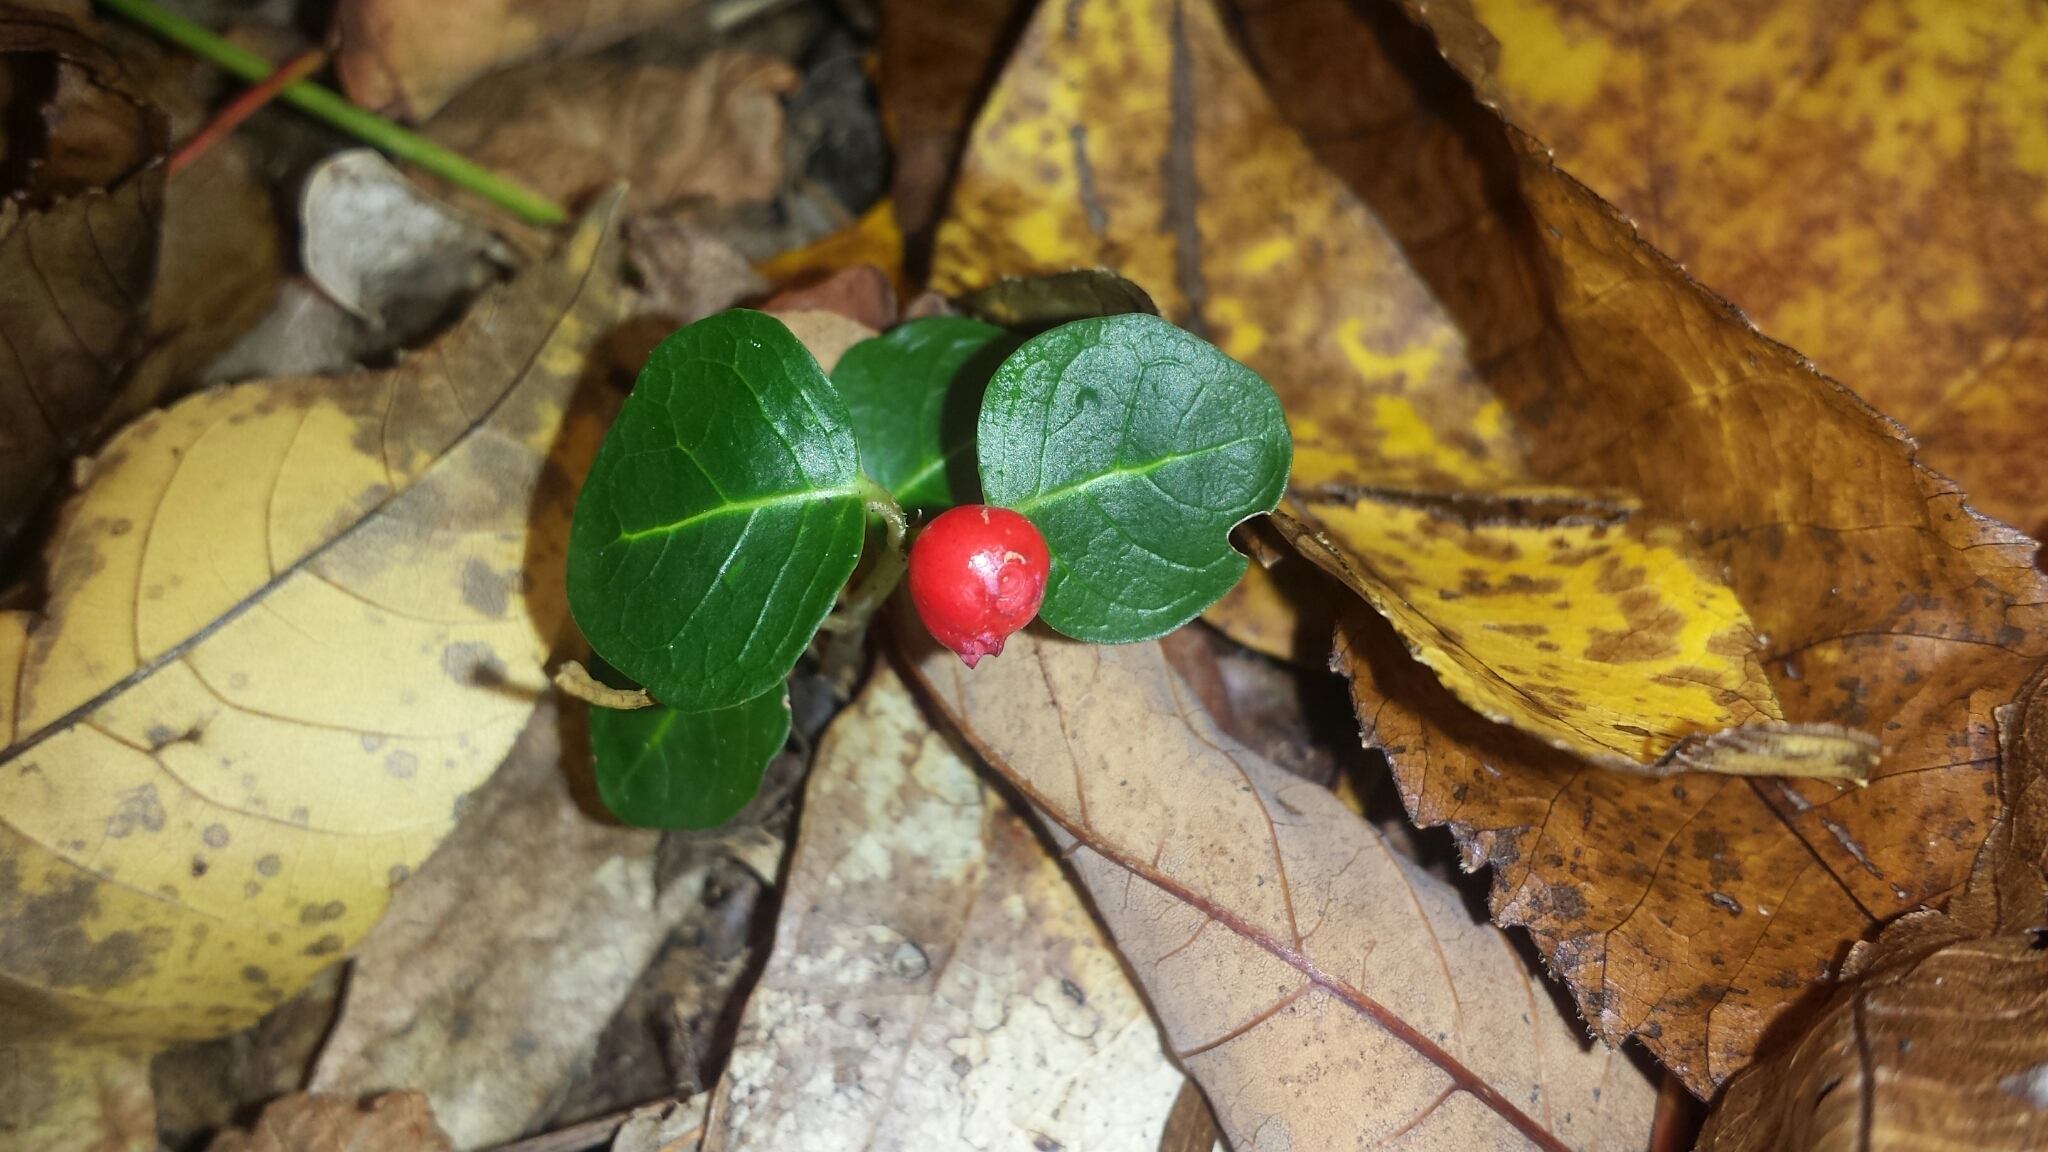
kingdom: Plantae
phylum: Tracheophyta
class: Magnoliopsida
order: Gentianales
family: Rubiaceae
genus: Mitchella
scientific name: Mitchella repens
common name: Partridge-berry
